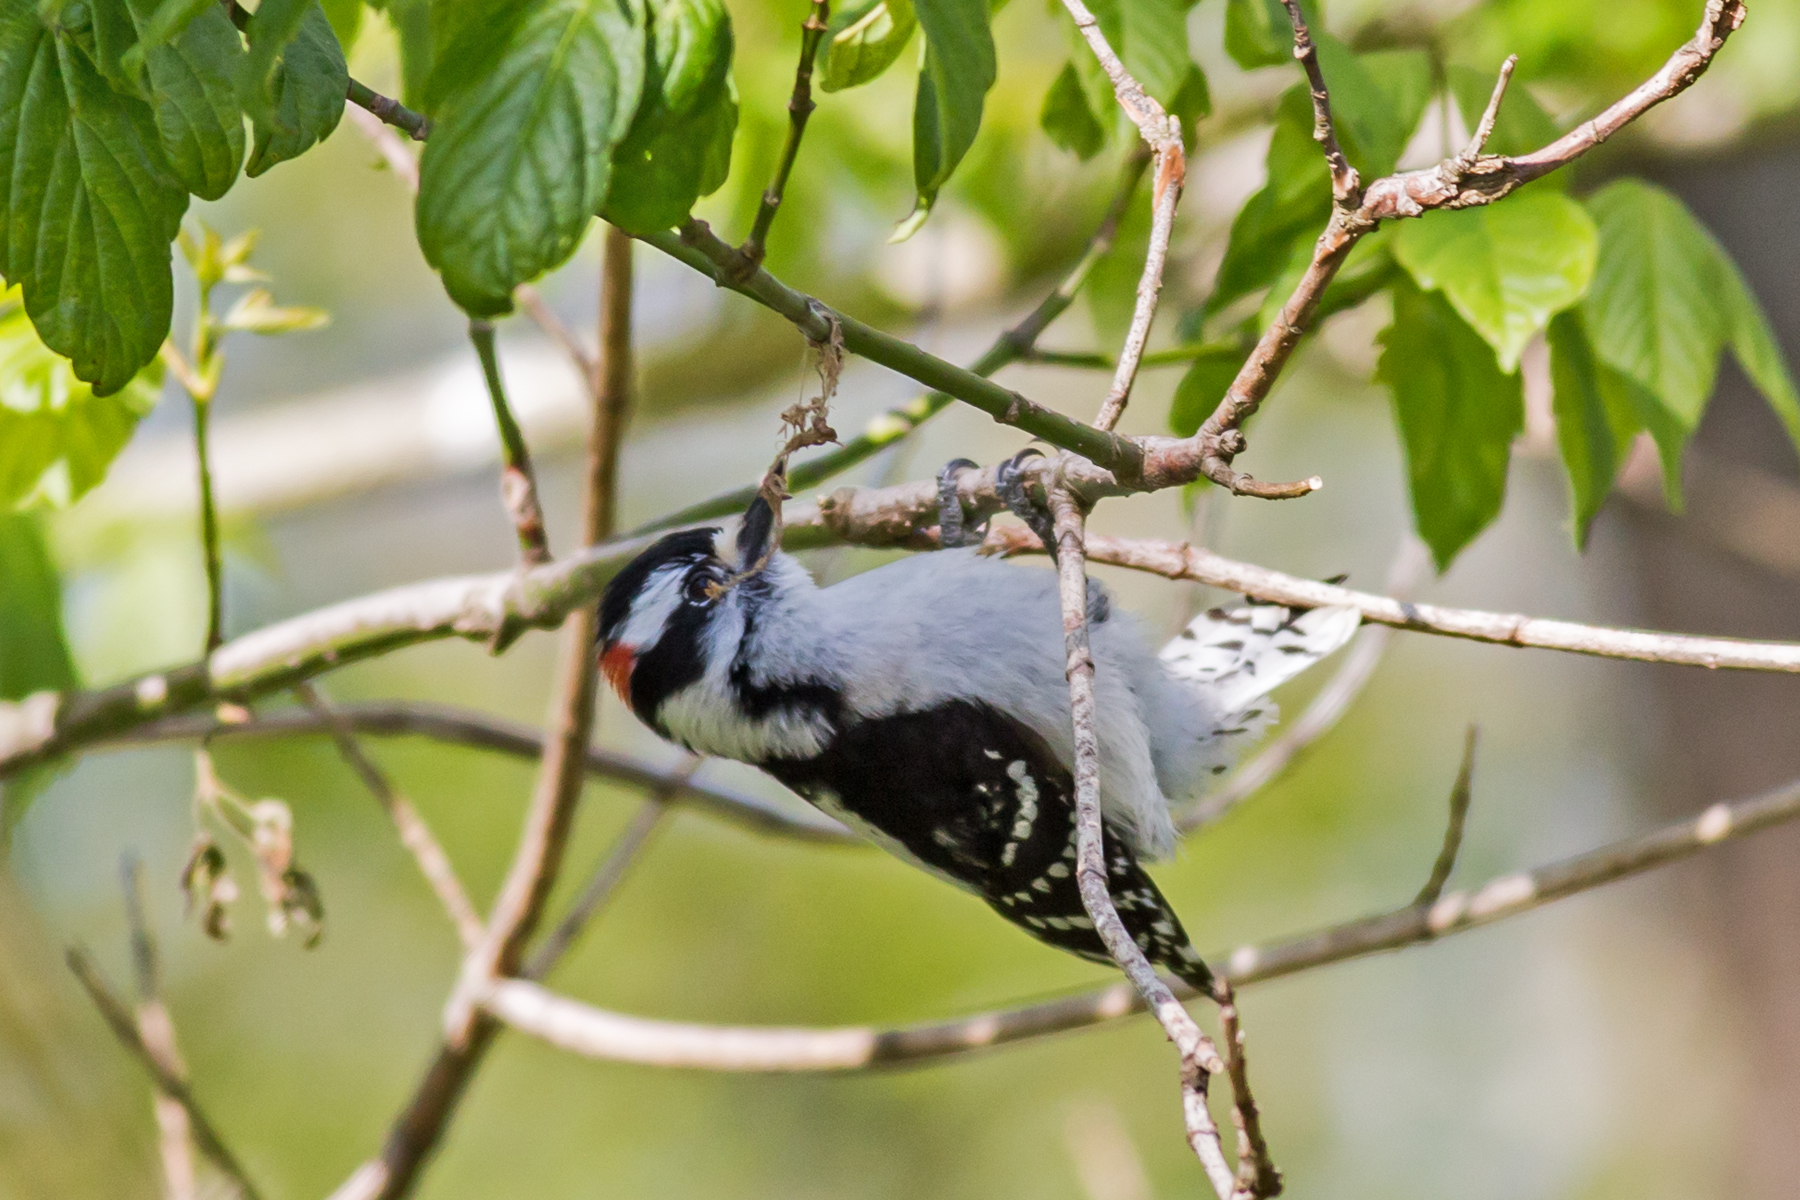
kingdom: Animalia
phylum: Chordata
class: Aves
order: Piciformes
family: Picidae
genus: Dryobates
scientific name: Dryobates pubescens
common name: Downy woodpecker
